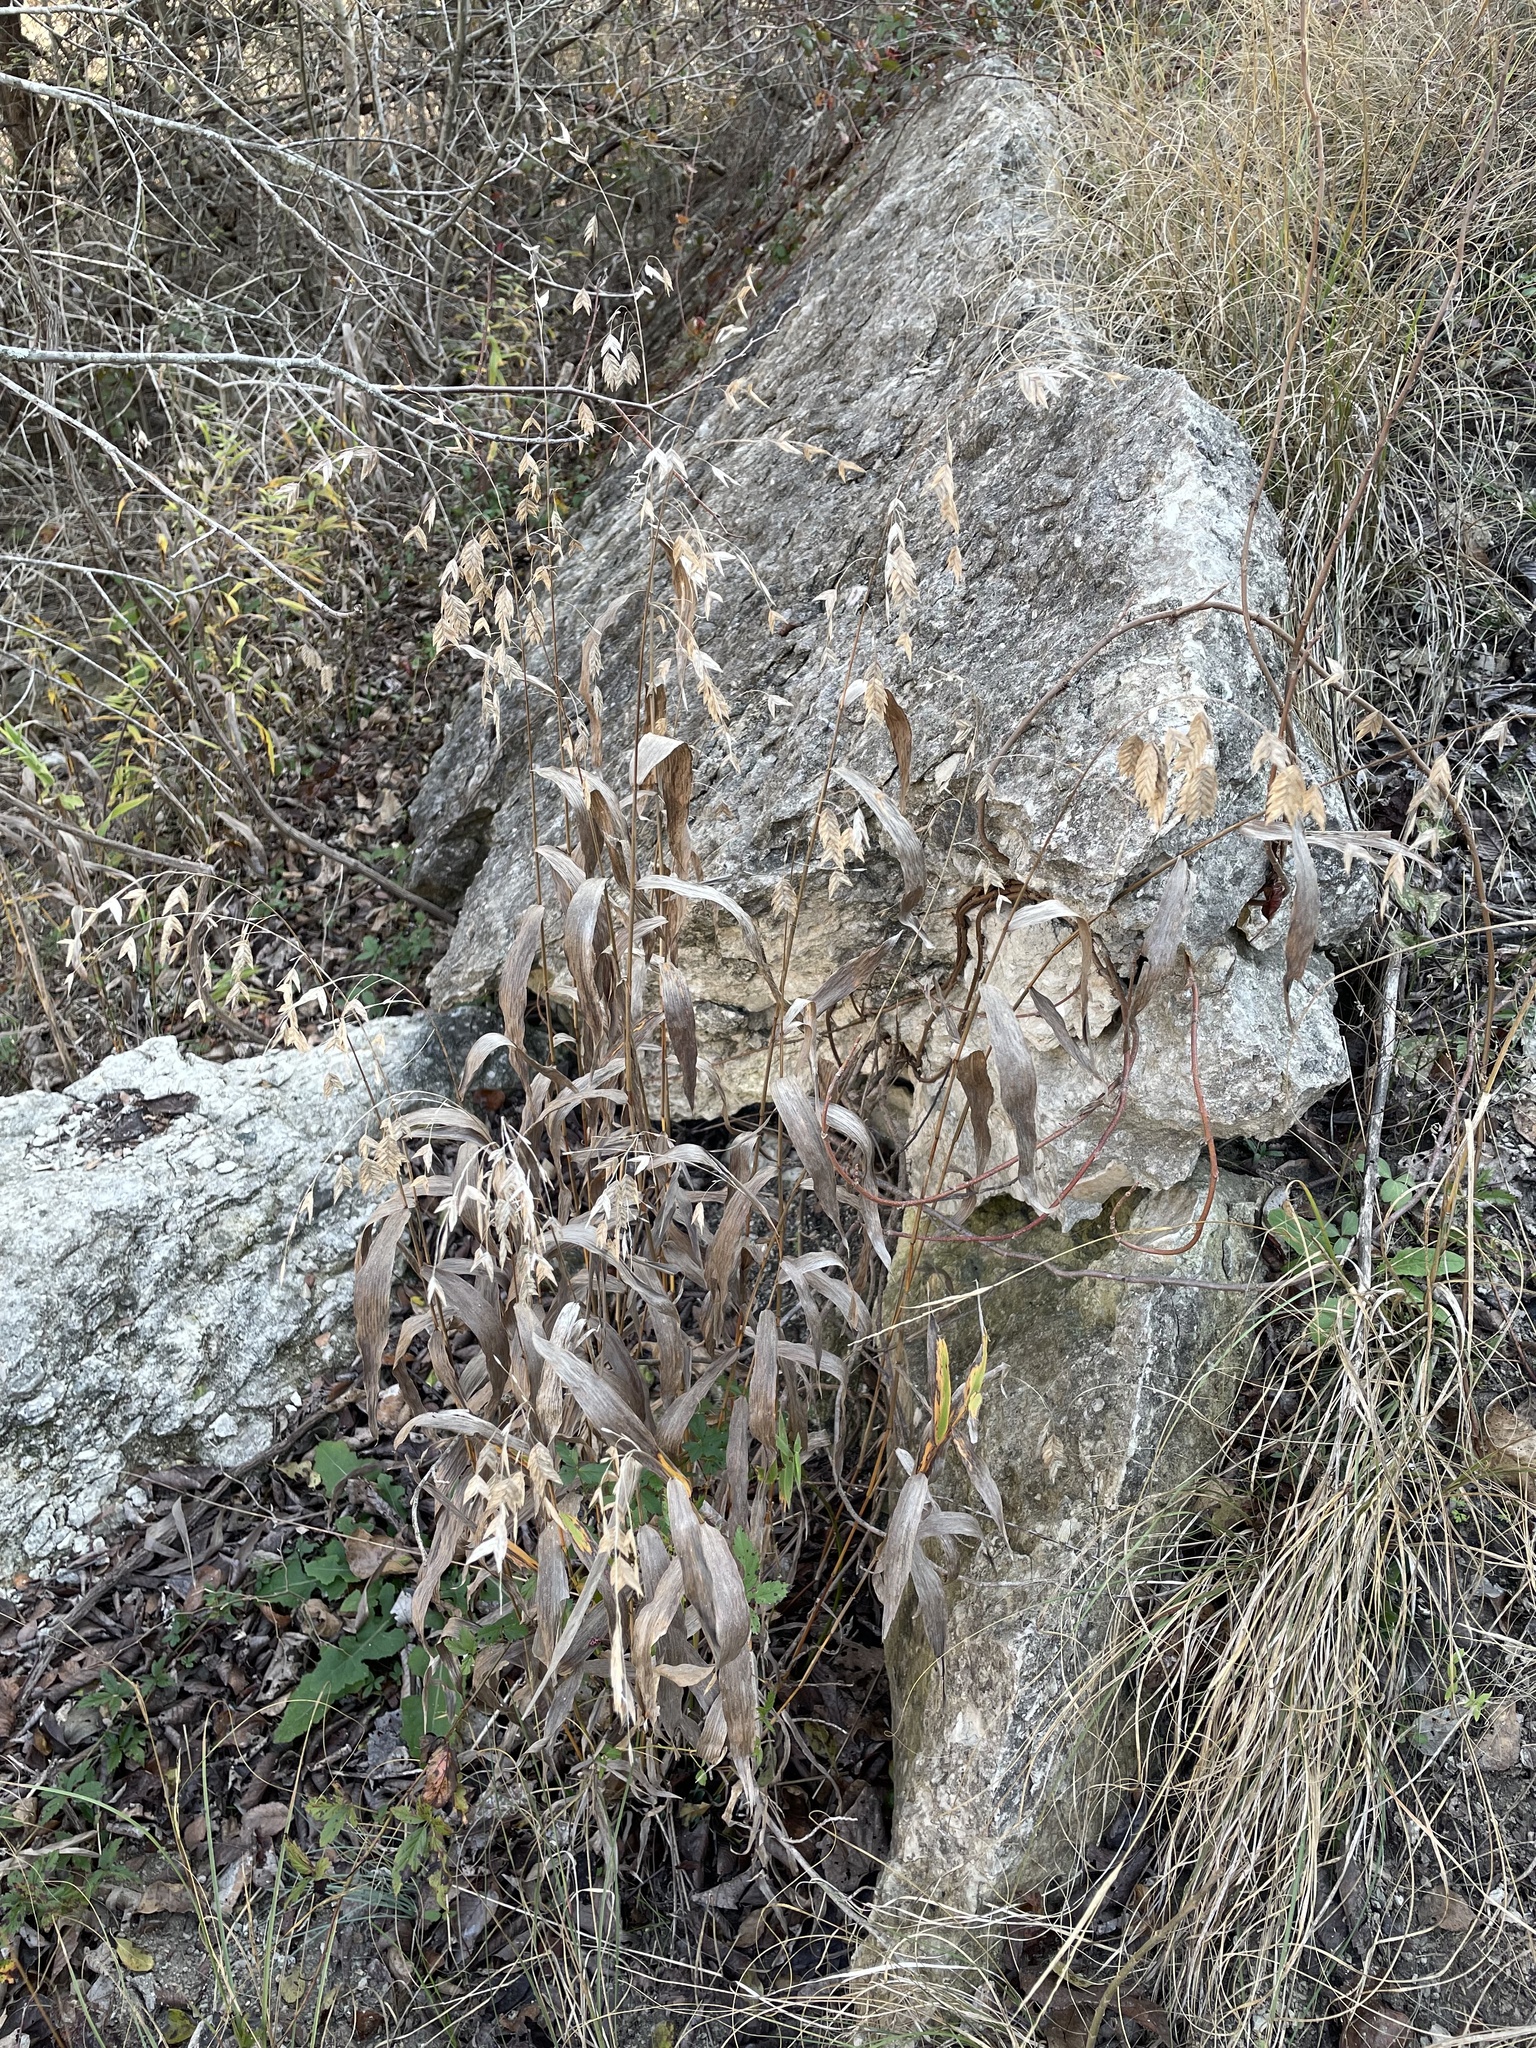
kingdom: Plantae
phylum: Tracheophyta
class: Liliopsida
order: Poales
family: Poaceae
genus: Chasmanthium
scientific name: Chasmanthium latifolium
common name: Broad-leaved chasmanthium
